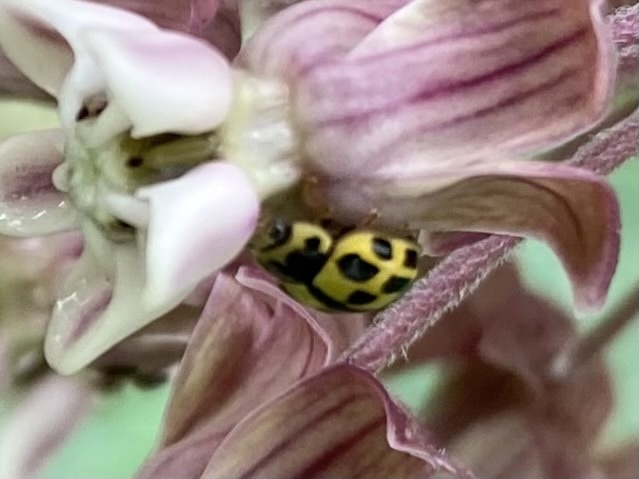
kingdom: Animalia
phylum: Arthropoda
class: Insecta
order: Coleoptera
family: Coccinellidae
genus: Propylaea
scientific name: Propylaea quatuordecimpunctata
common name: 14-spotted ladybird beetle
